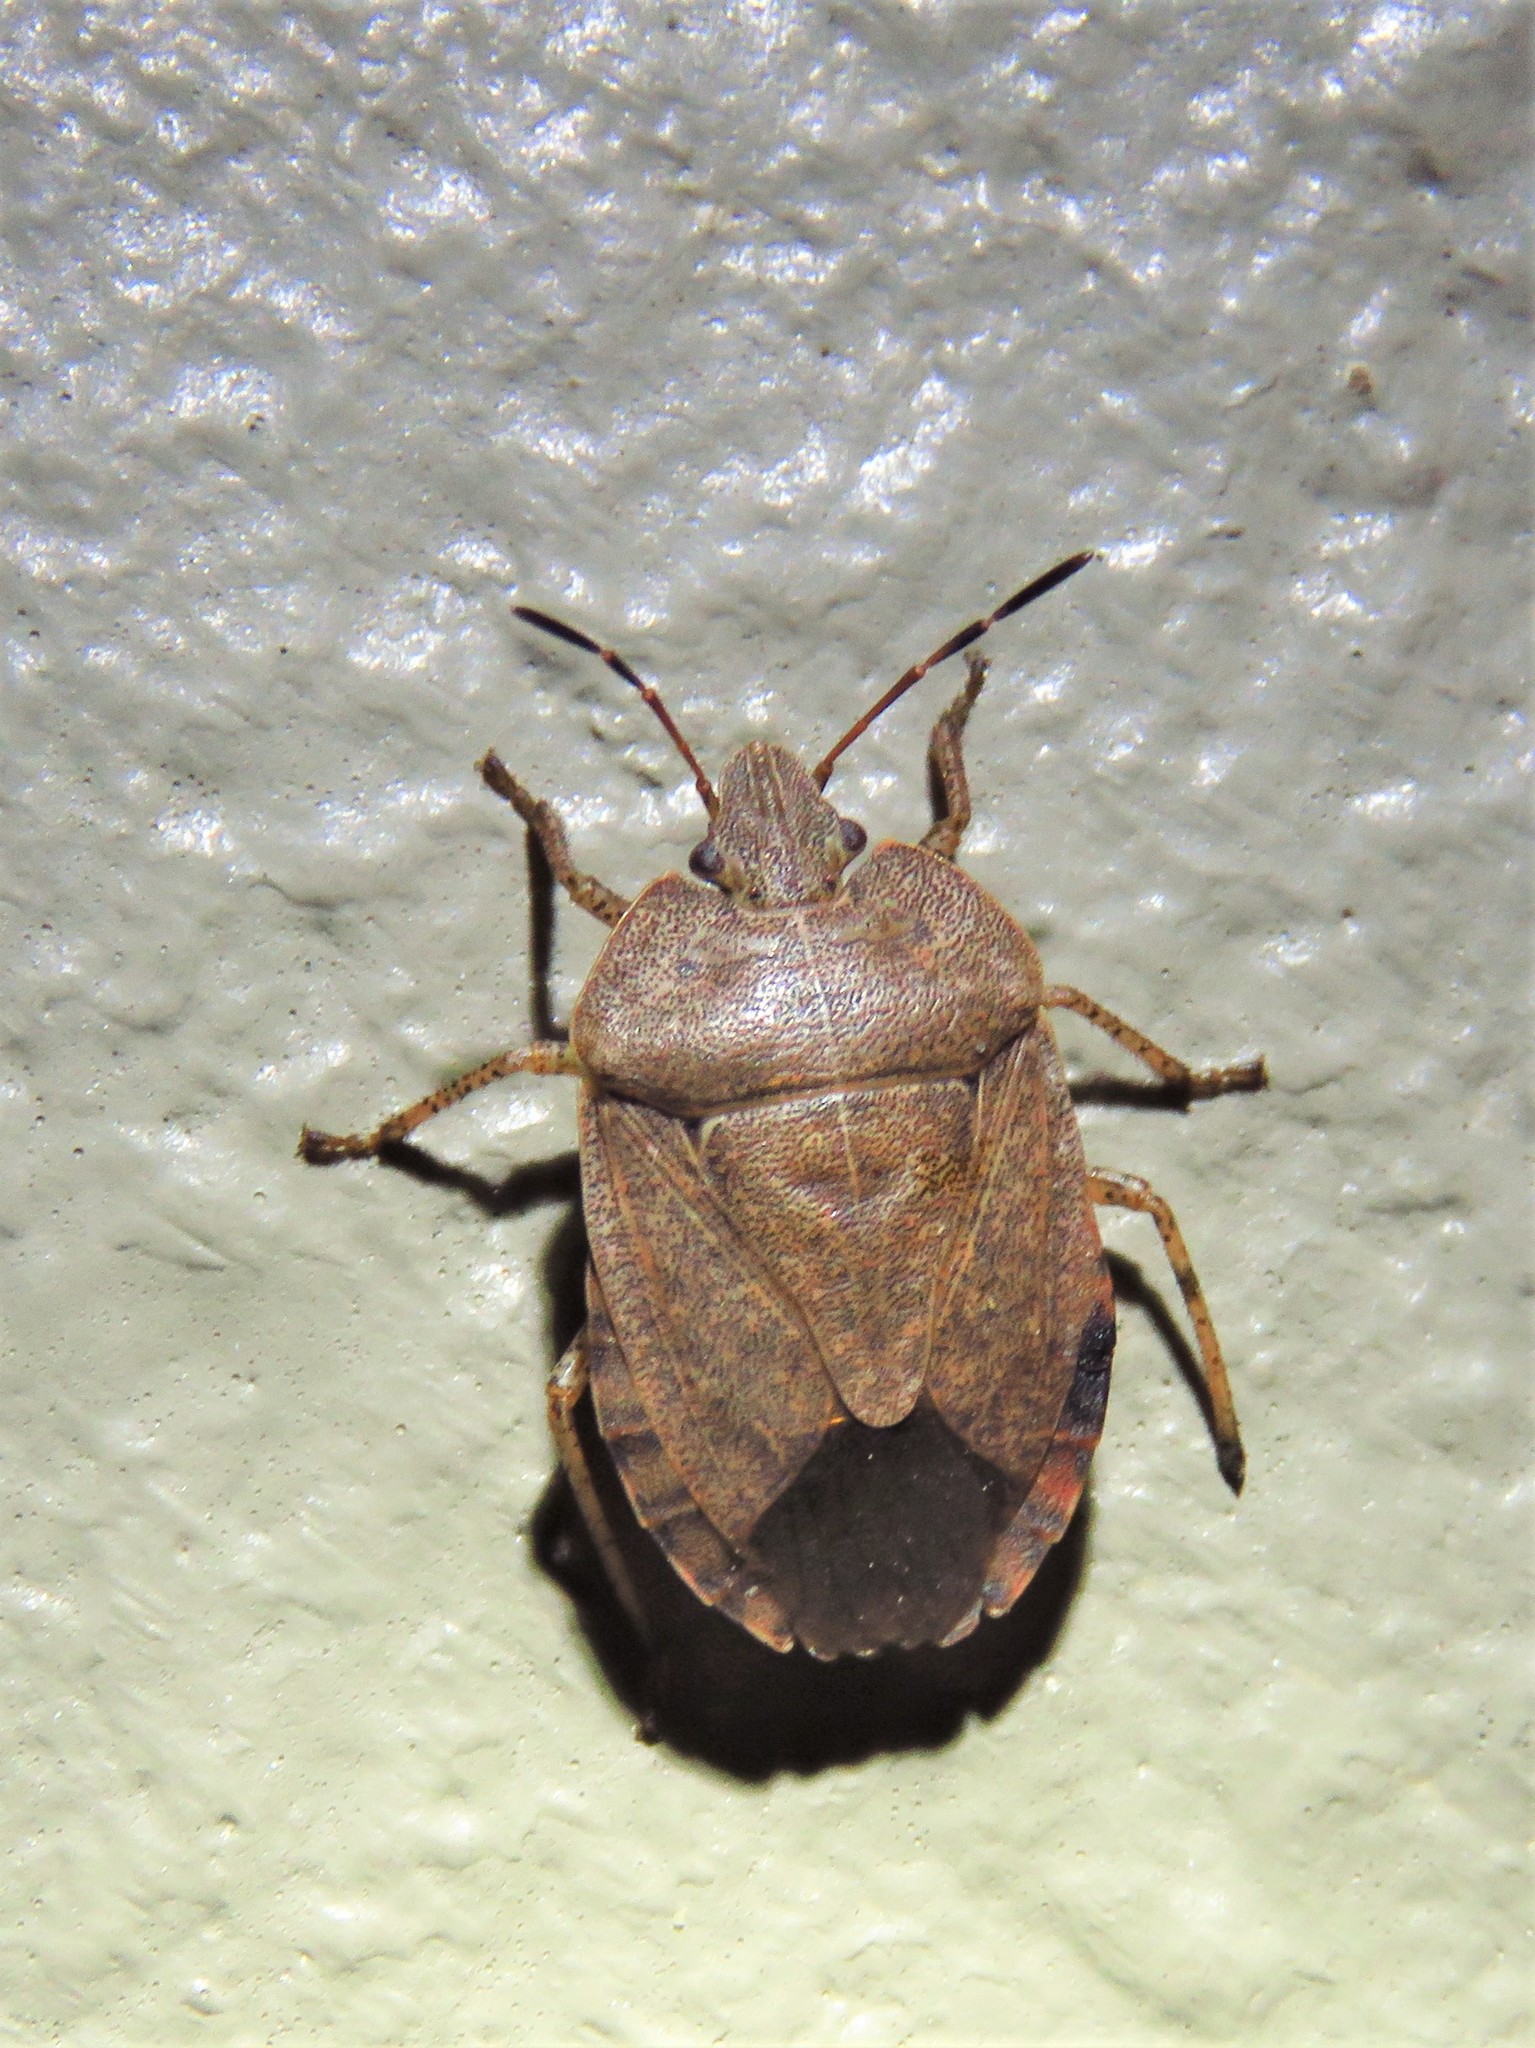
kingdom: Animalia
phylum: Arthropoda
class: Insecta
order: Hemiptera
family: Pentatomidae
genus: Menecles
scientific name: Menecles insertus
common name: Elf shoe stink bug
